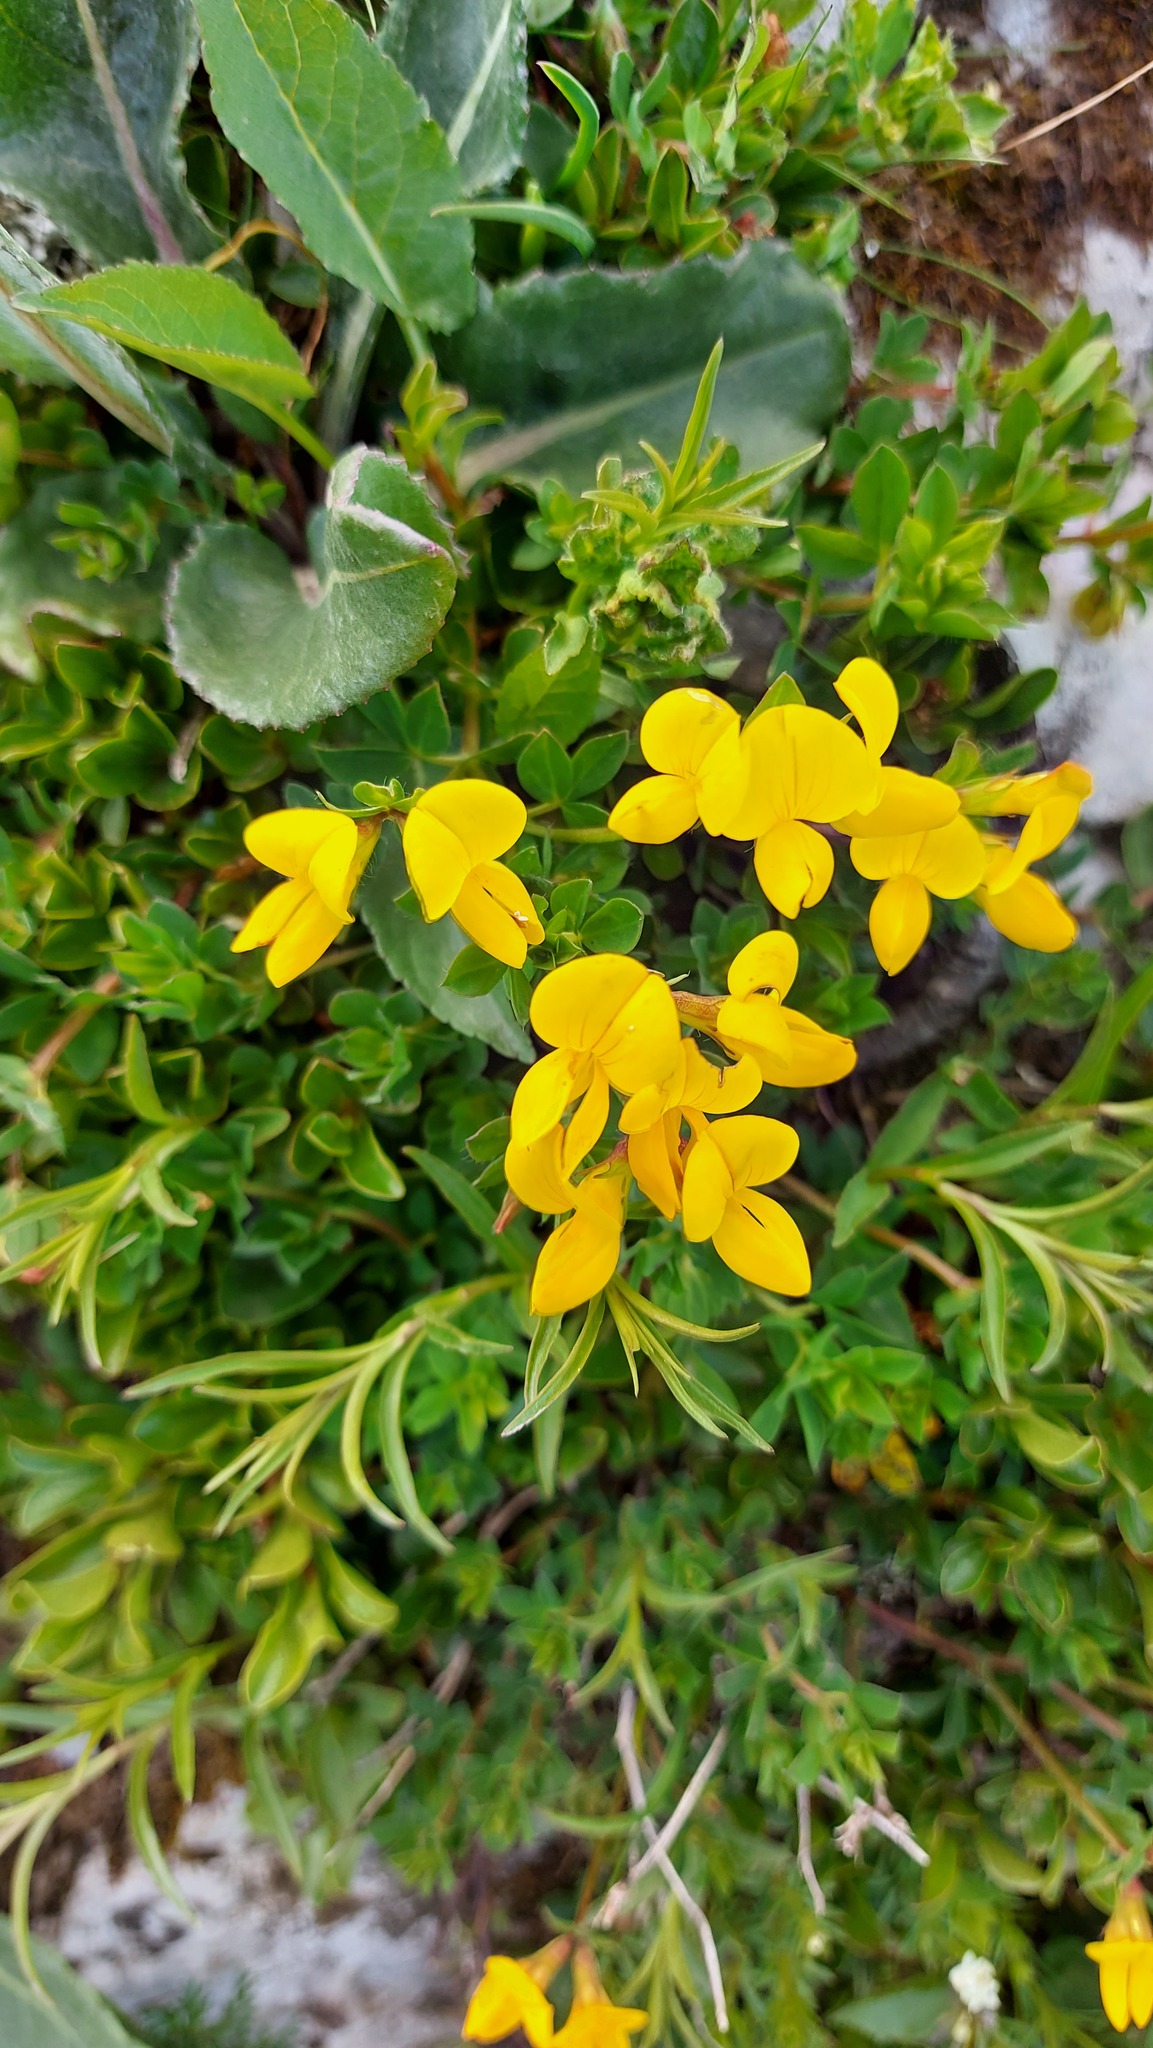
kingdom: Plantae
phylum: Tracheophyta
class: Magnoliopsida
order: Fabales
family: Fabaceae
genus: Lotus
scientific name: Lotus corniculatus
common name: Common bird's-foot-trefoil
